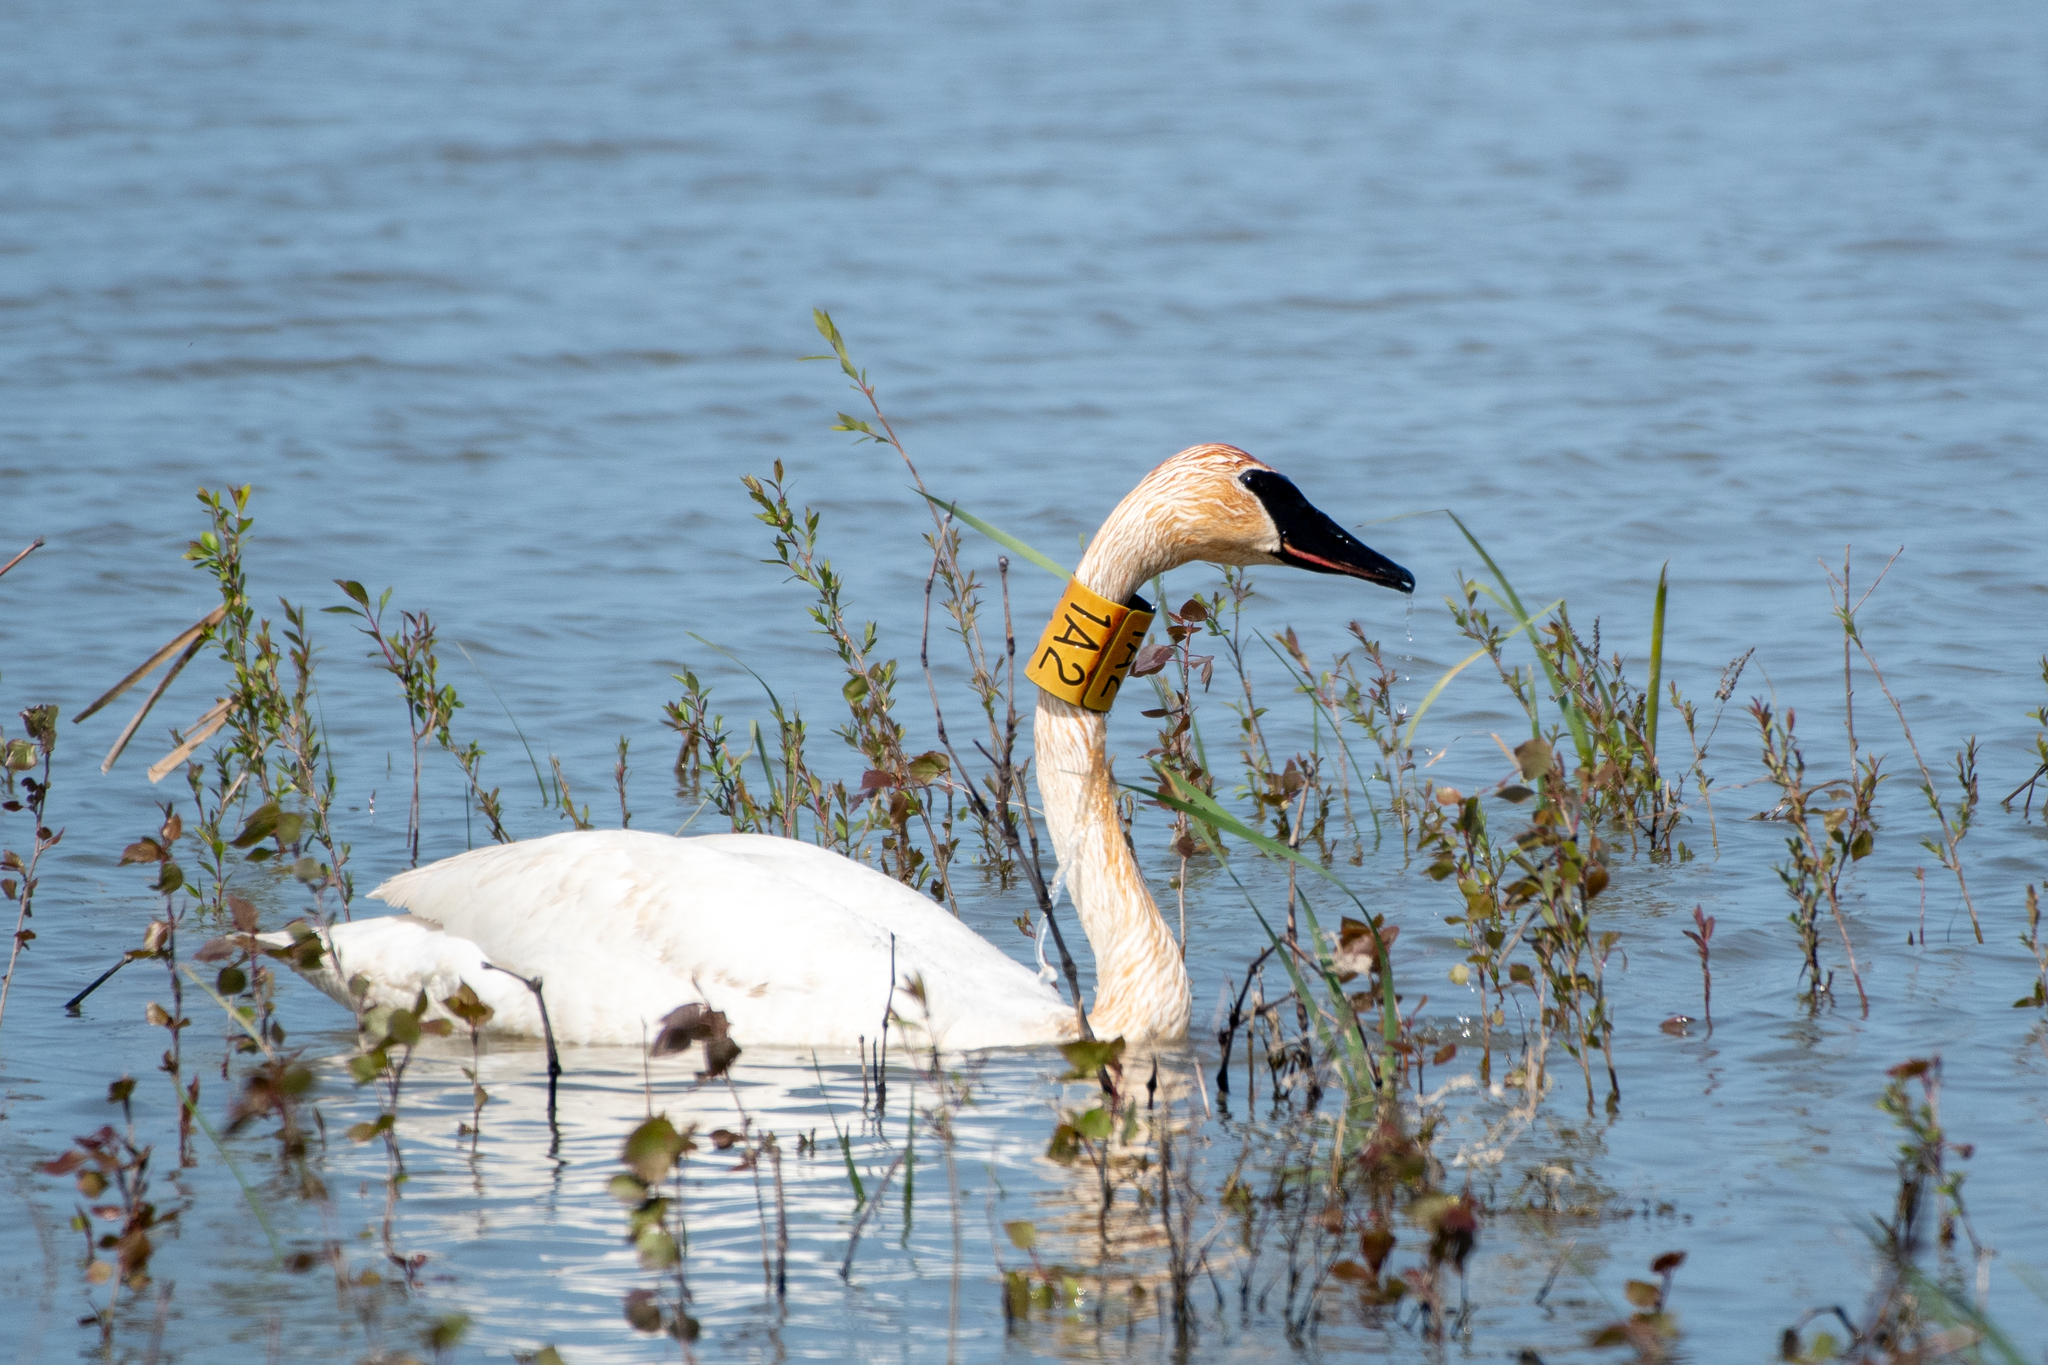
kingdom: Animalia
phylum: Chordata
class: Aves
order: Anseriformes
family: Anatidae
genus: Cygnus
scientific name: Cygnus buccinator
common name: Trumpeter swan
